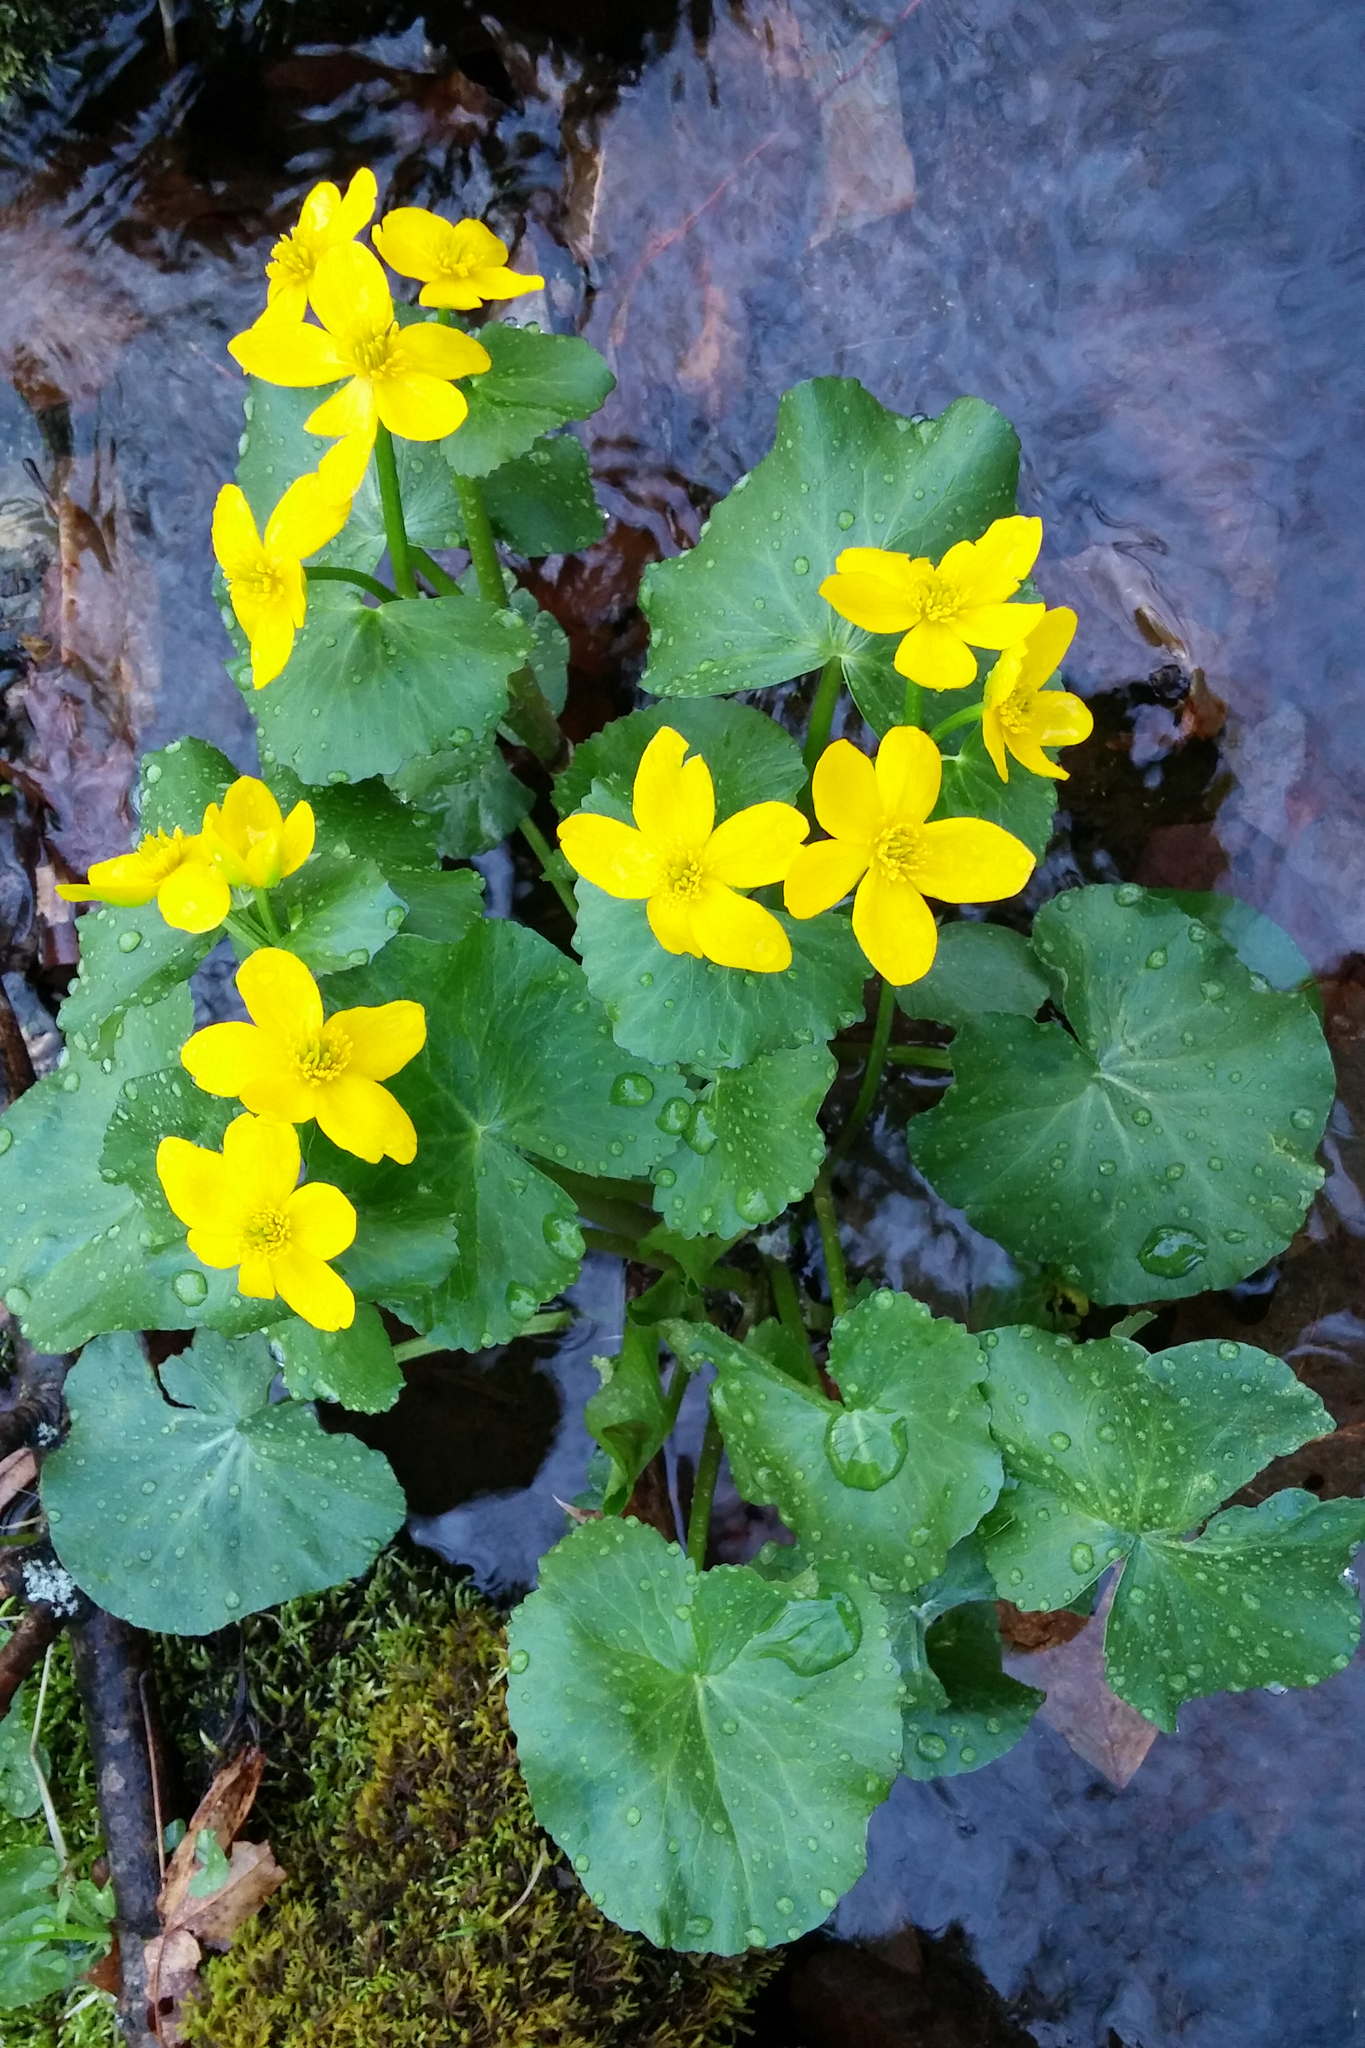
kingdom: Plantae
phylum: Tracheophyta
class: Magnoliopsida
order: Ranunculales
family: Ranunculaceae
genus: Caltha
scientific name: Caltha palustris
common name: Marsh marigold
